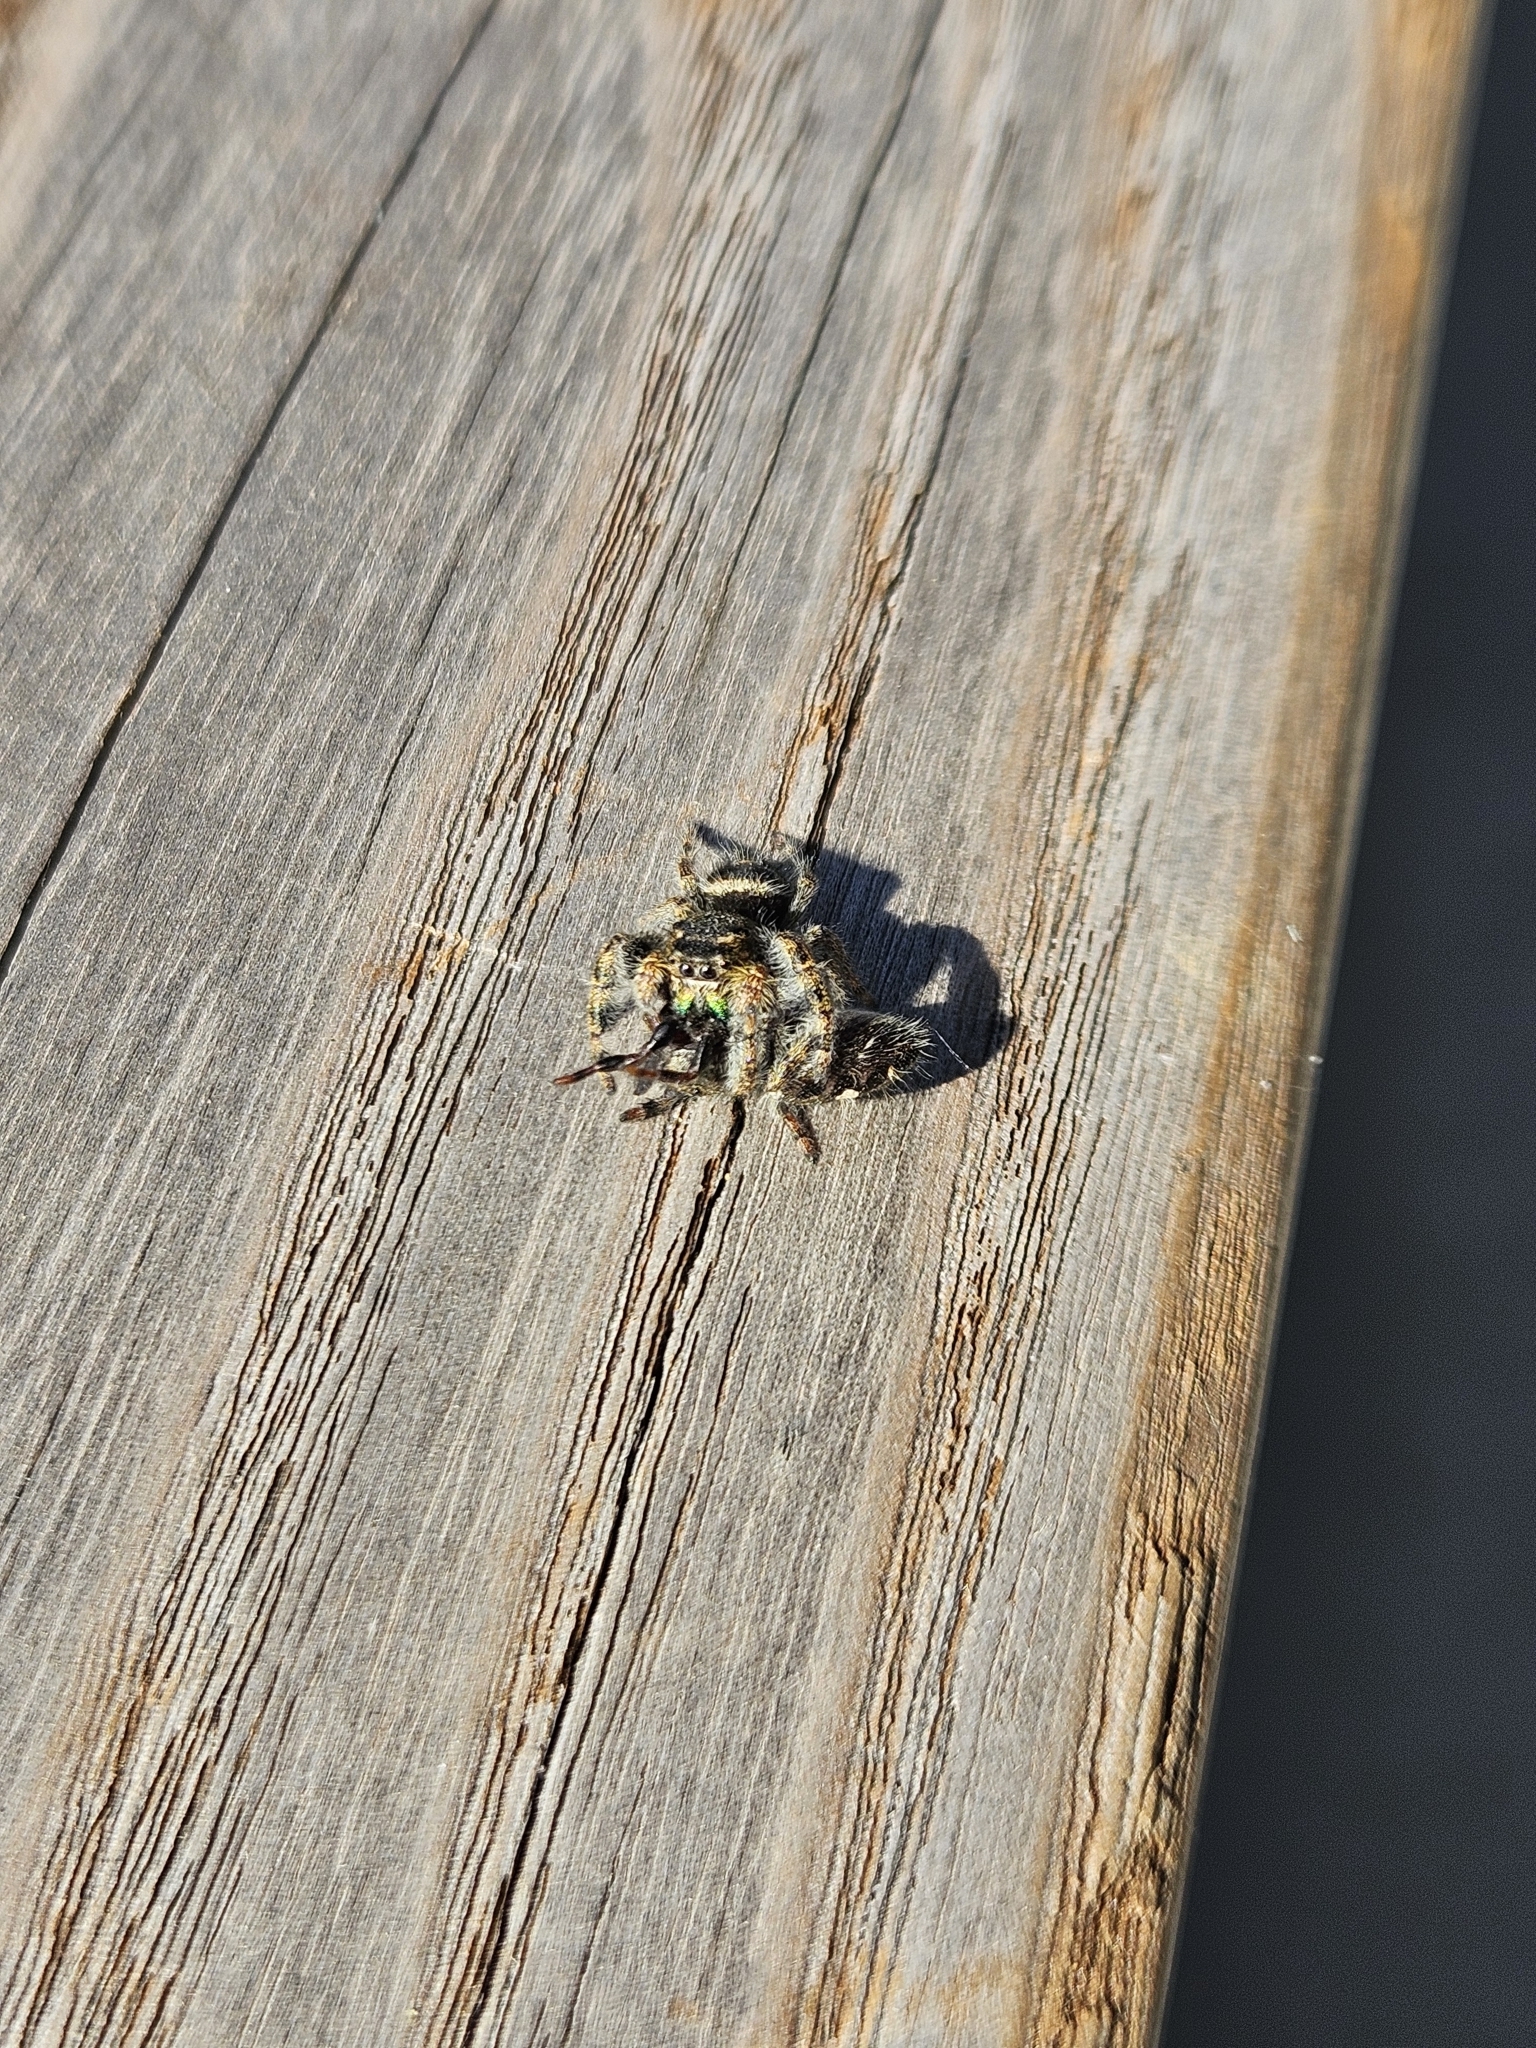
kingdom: Animalia
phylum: Arthropoda
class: Arachnida
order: Araneae
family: Salticidae
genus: Phidippus
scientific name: Phidippus audax
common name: Bold jumper
